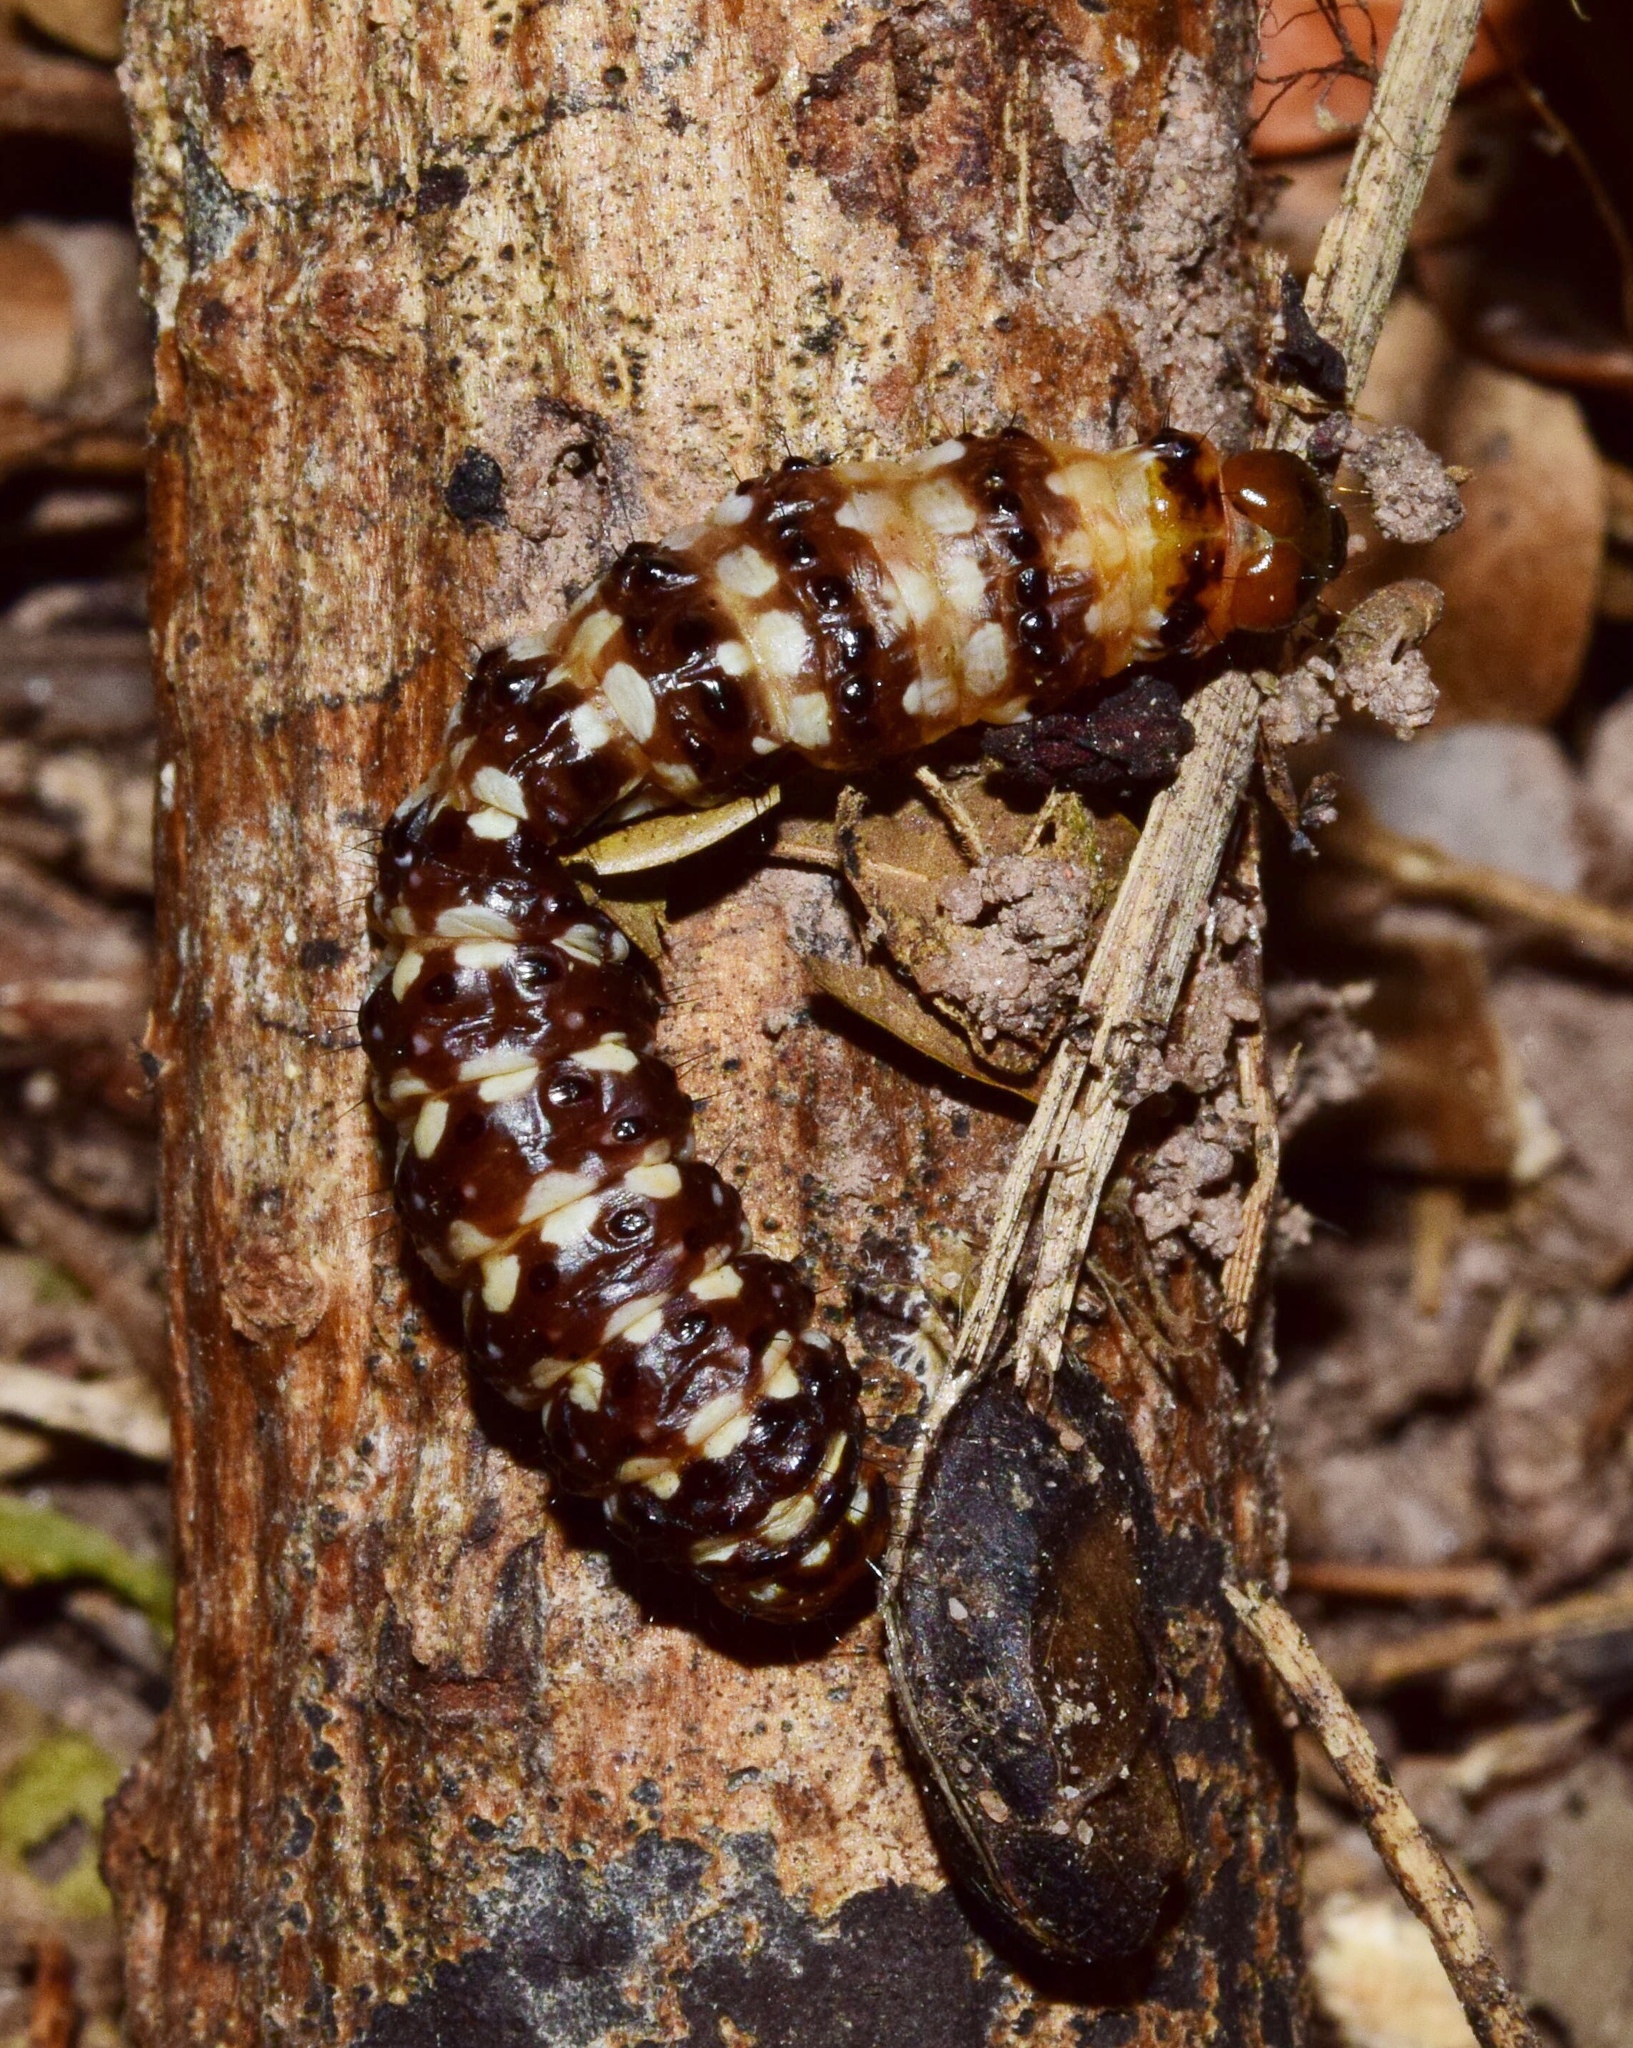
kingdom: Animalia
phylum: Arthropoda
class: Insecta
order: Lepidoptera
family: Noctuidae
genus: Brithys
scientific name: Brithys crini
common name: Kew arches
